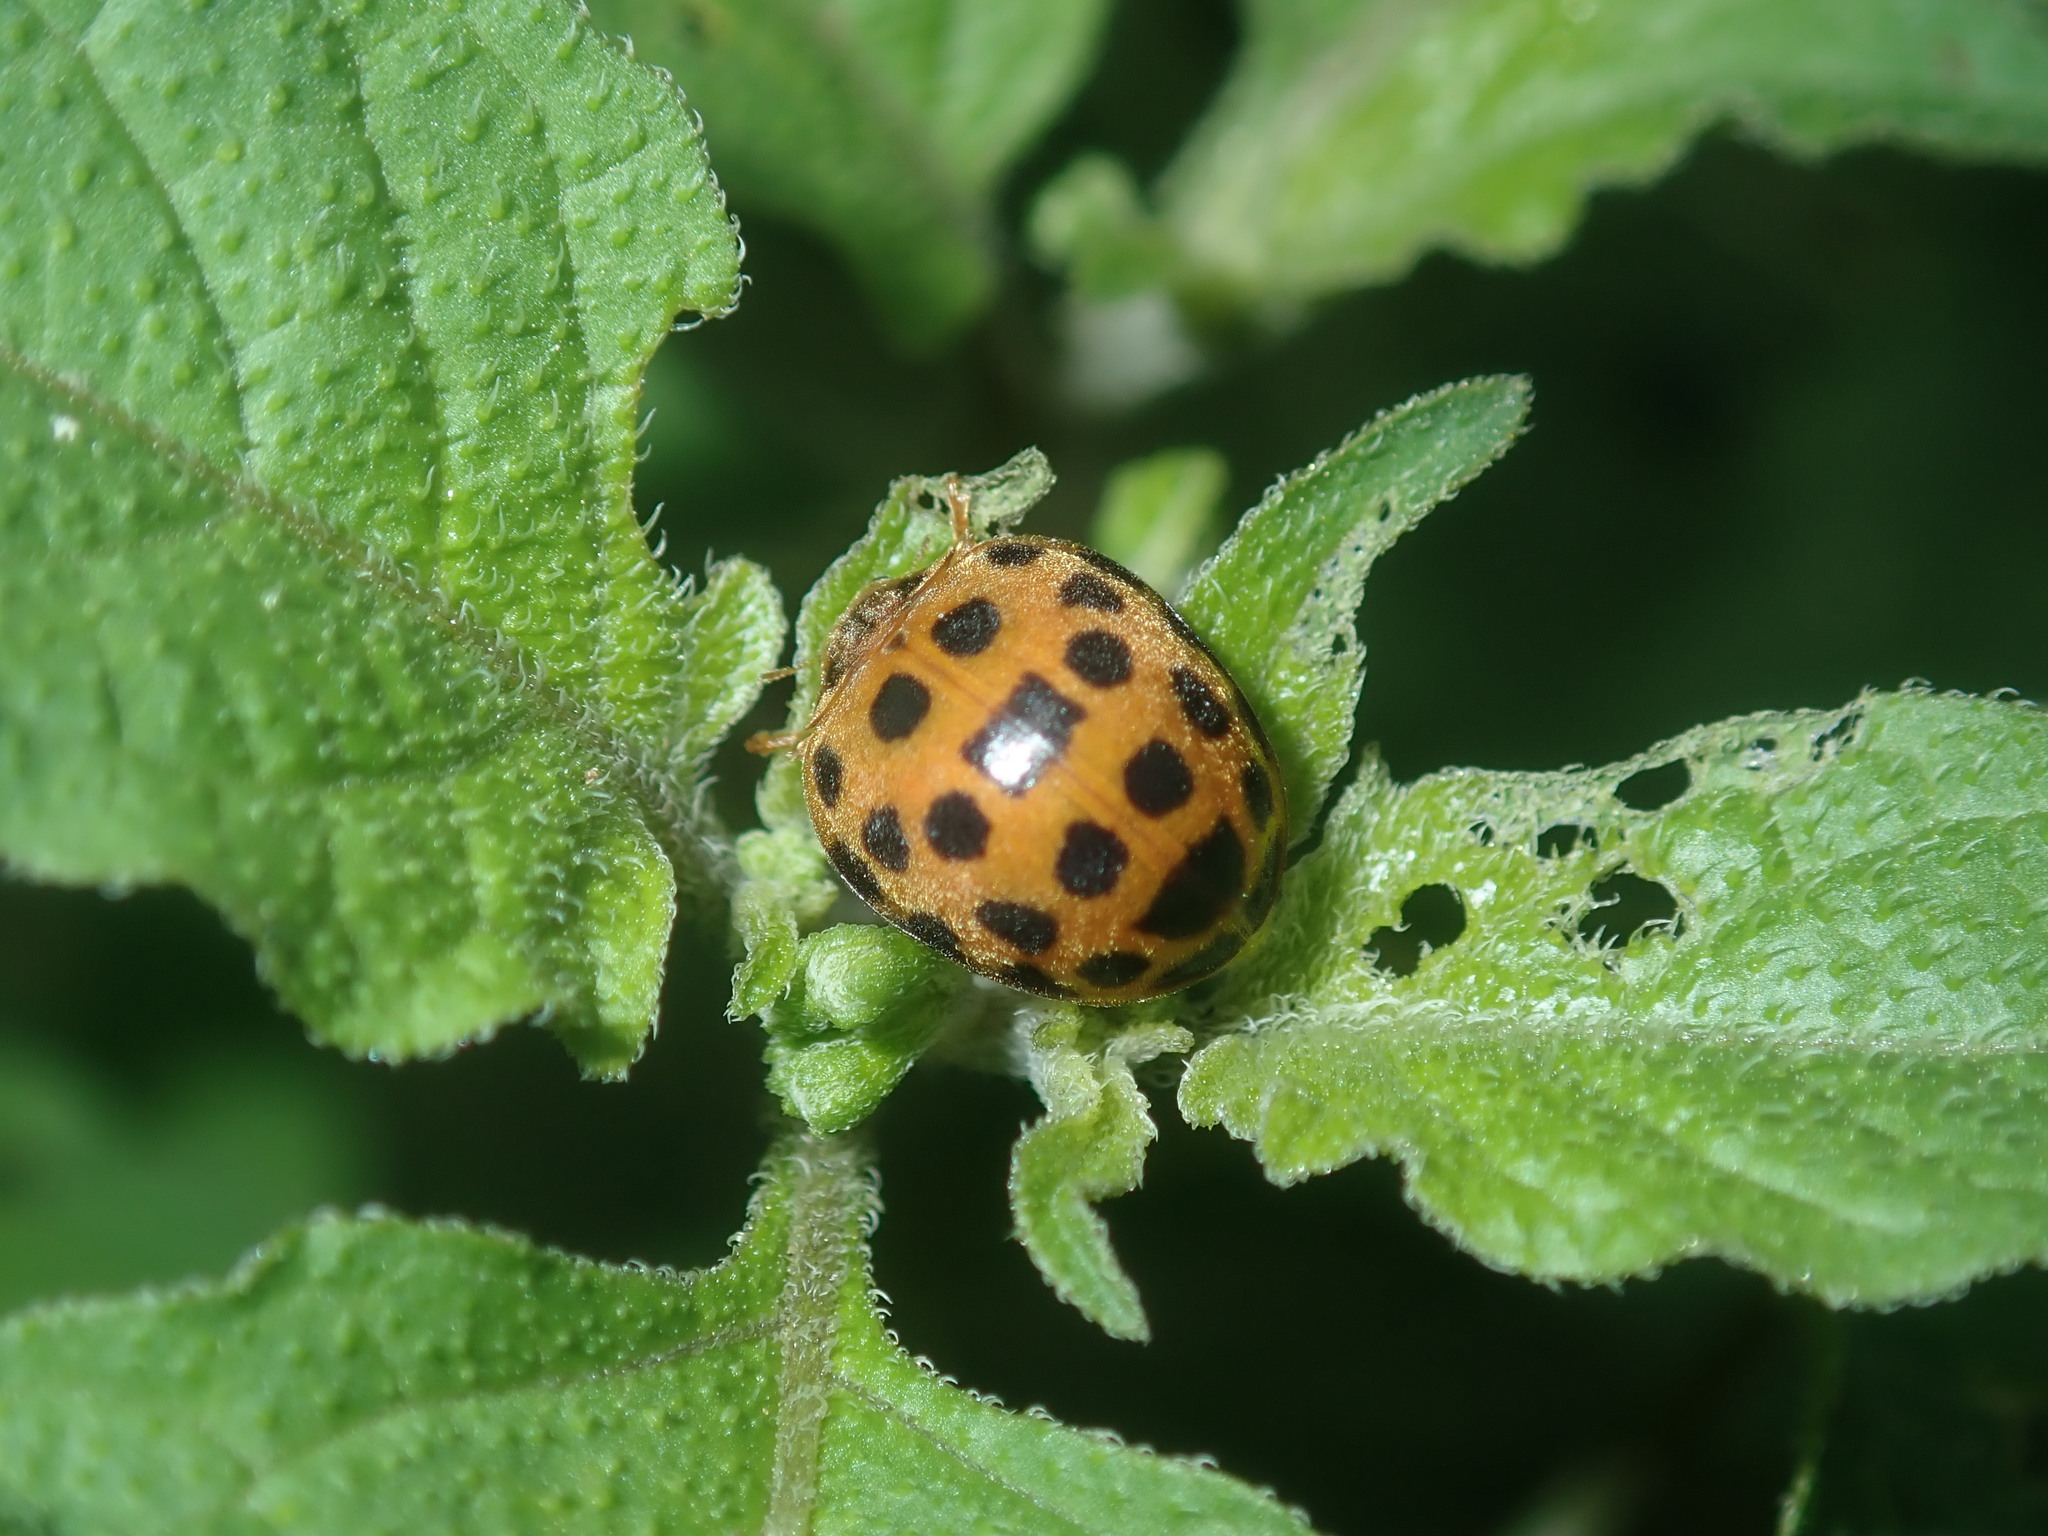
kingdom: Animalia
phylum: Arthropoda
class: Insecta
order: Coleoptera
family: Coccinellidae
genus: Henosepilachna
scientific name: Henosepilachna vigintioctopunctata
